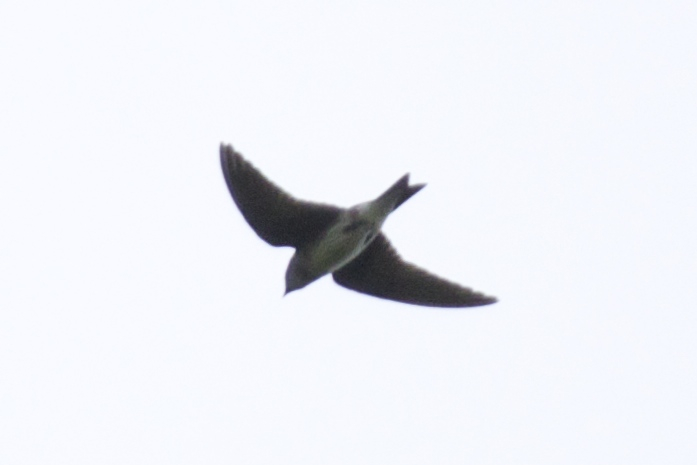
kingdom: Animalia
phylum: Chordata
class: Aves
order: Passeriformes
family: Hirundinidae
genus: Progne
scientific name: Progne subis
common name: Purple martin
